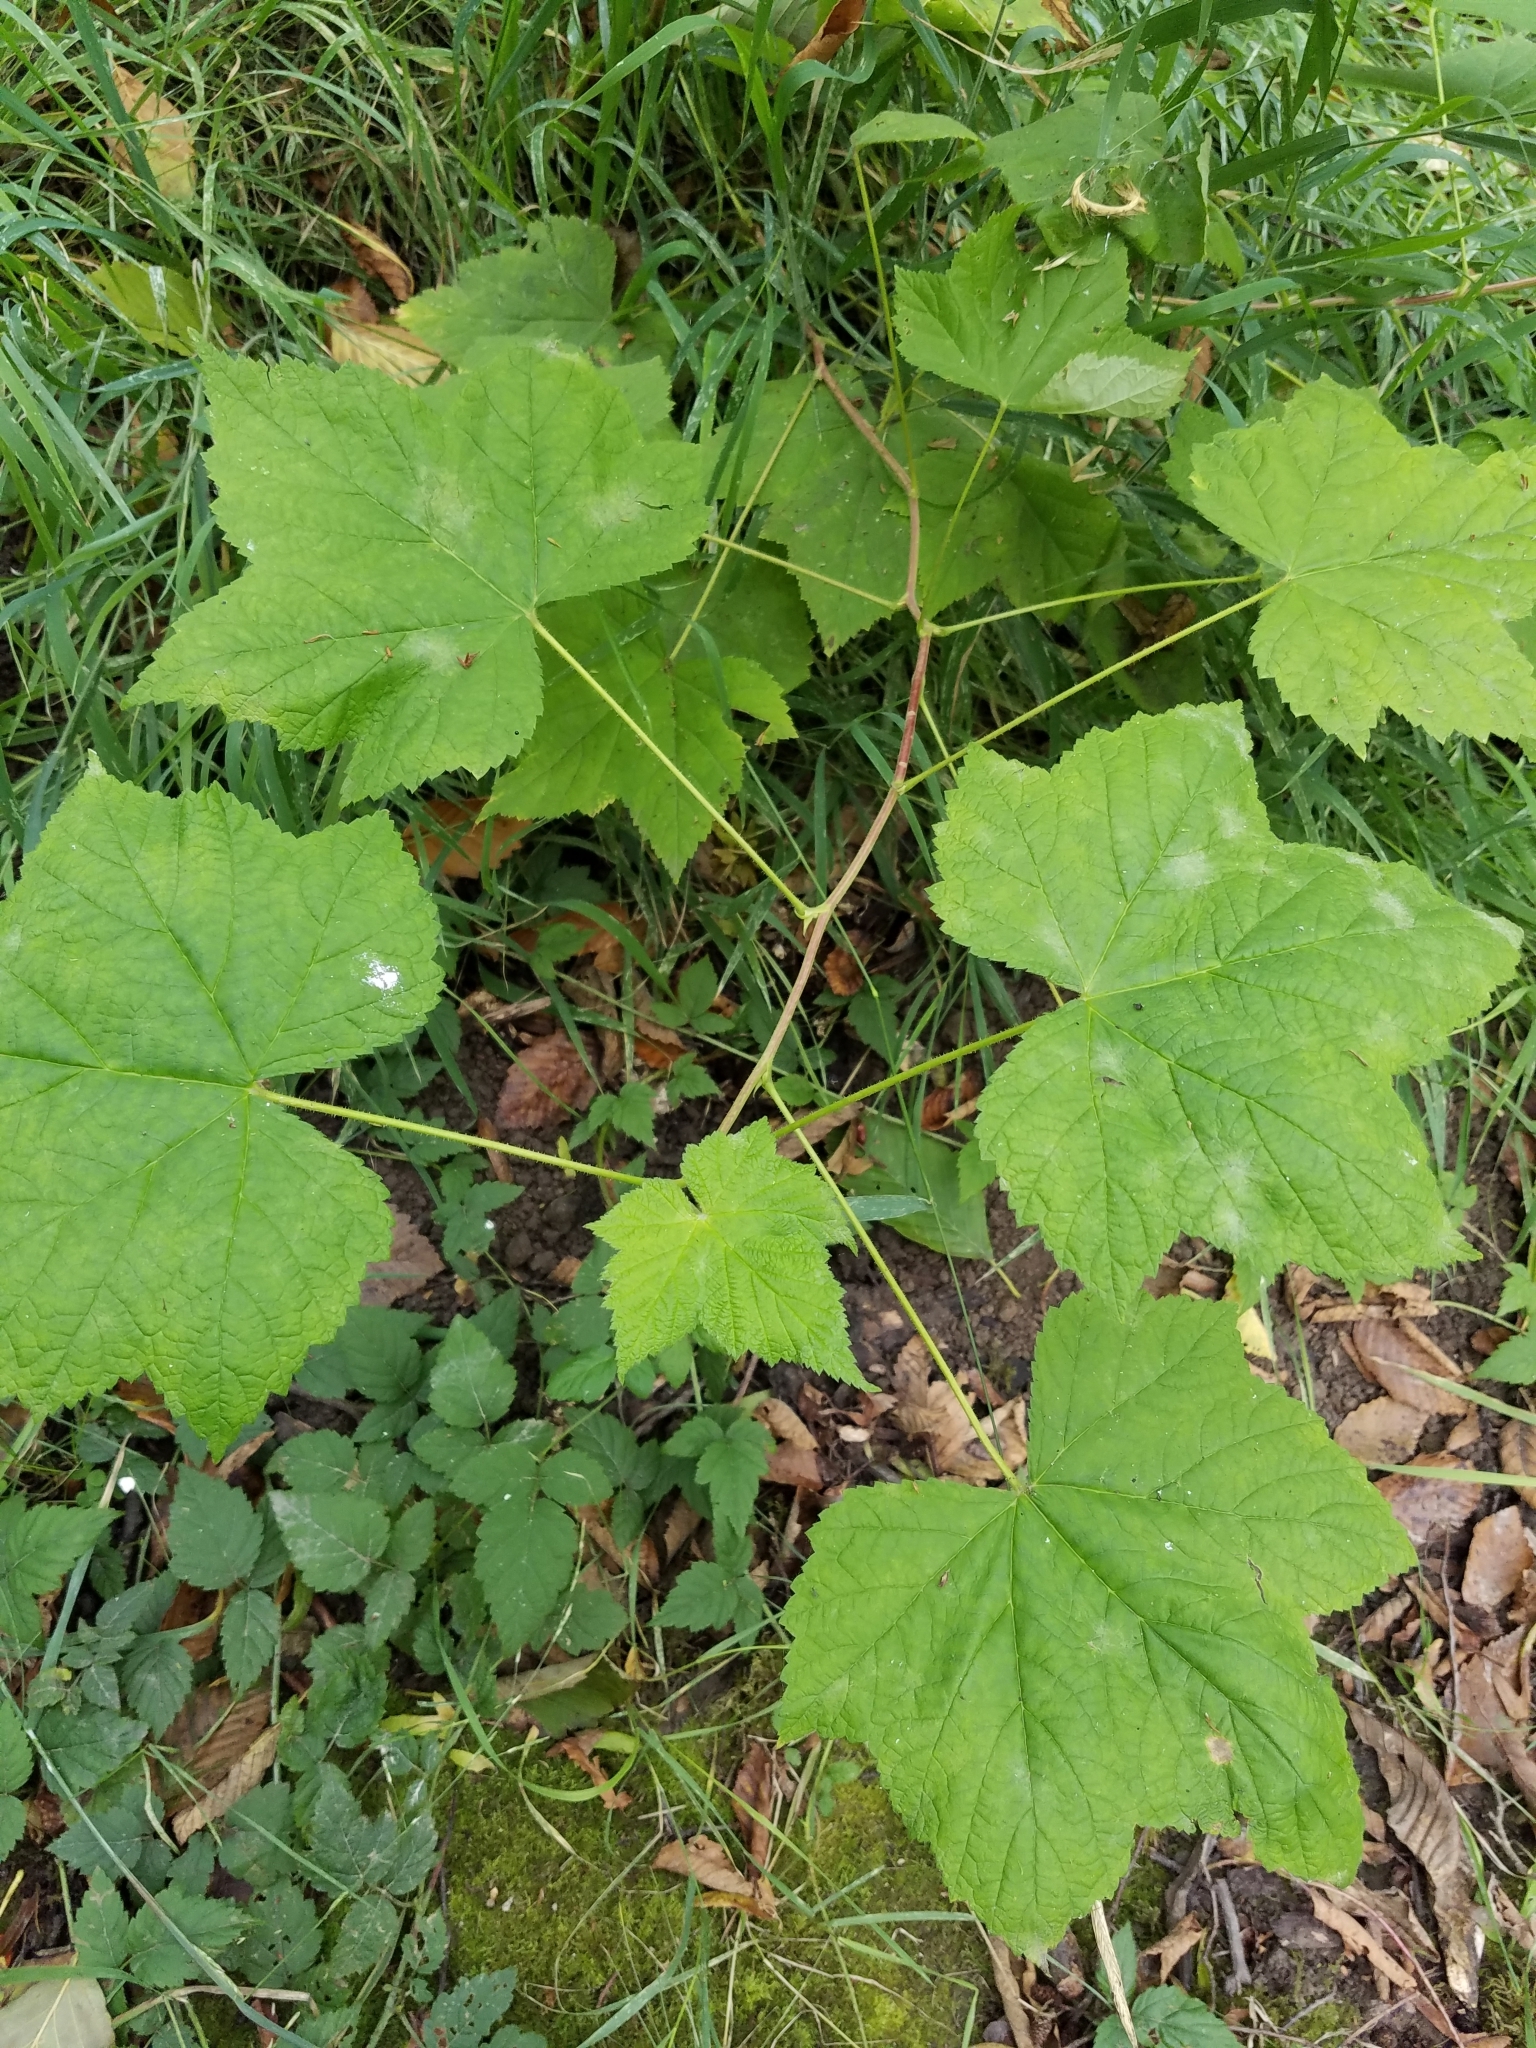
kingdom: Plantae
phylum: Tracheophyta
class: Magnoliopsida
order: Rosales
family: Rosaceae
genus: Rubus
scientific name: Rubus parviflorus
